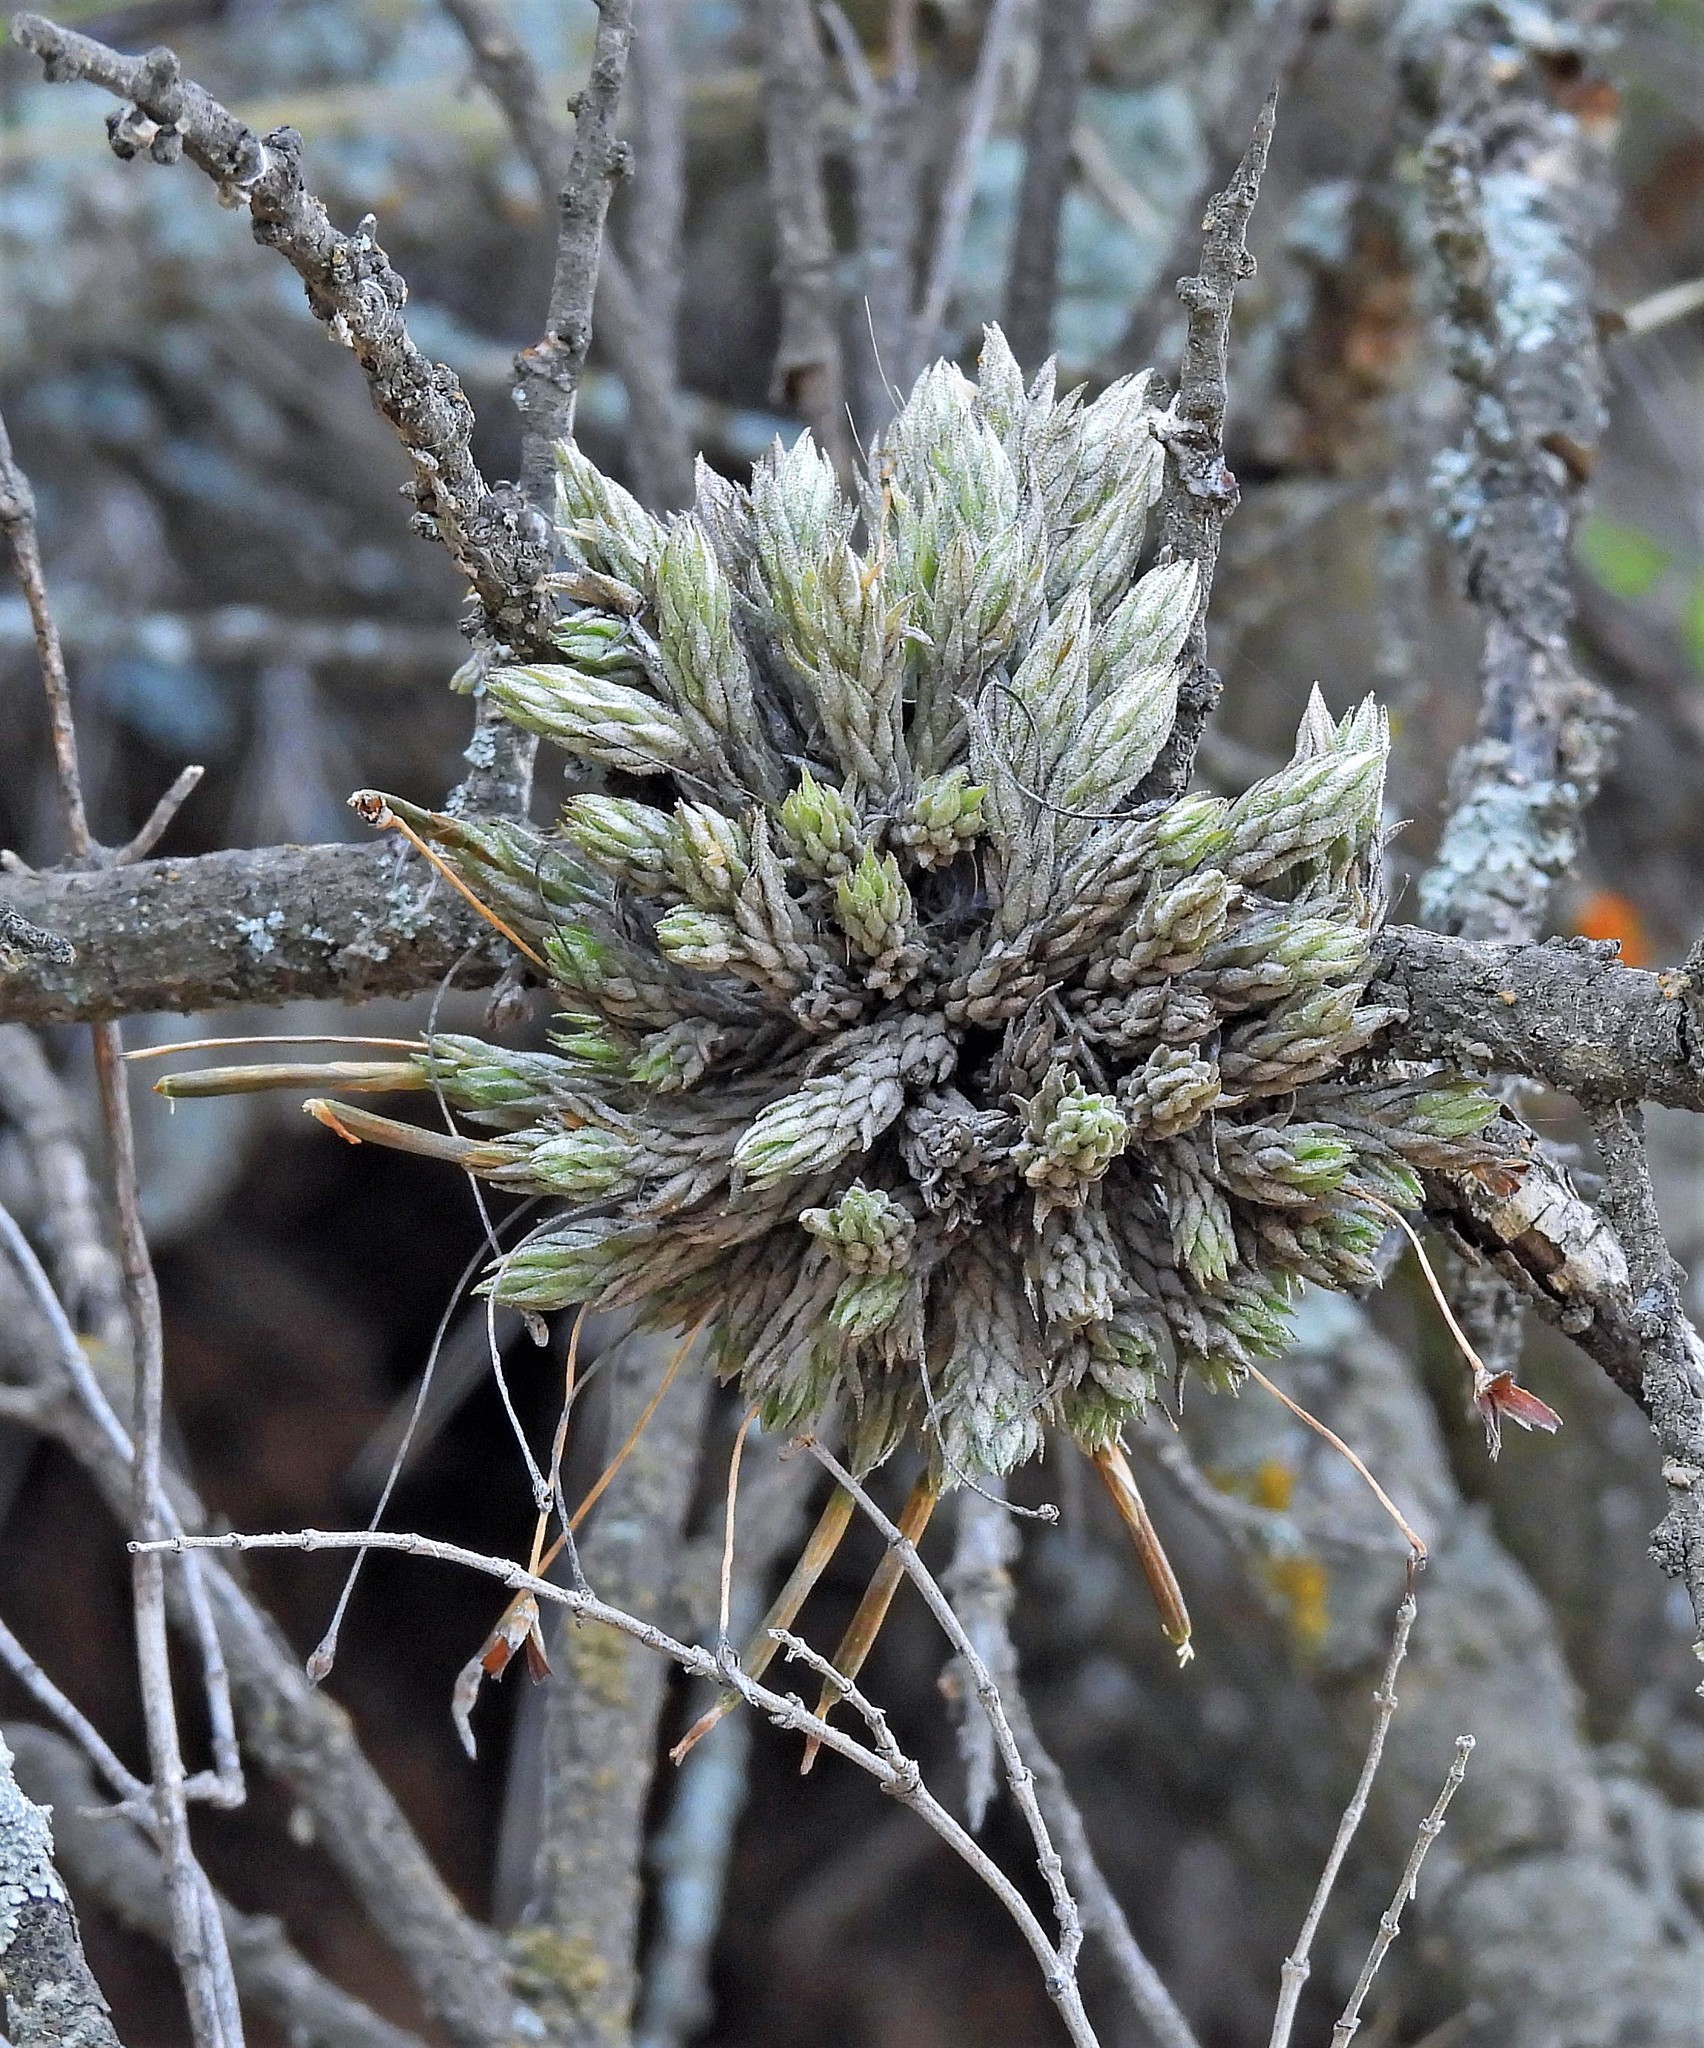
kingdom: Plantae
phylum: Tracheophyta
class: Liliopsida
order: Poales
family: Bromeliaceae
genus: Tillandsia
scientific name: Tillandsia pedicellata
